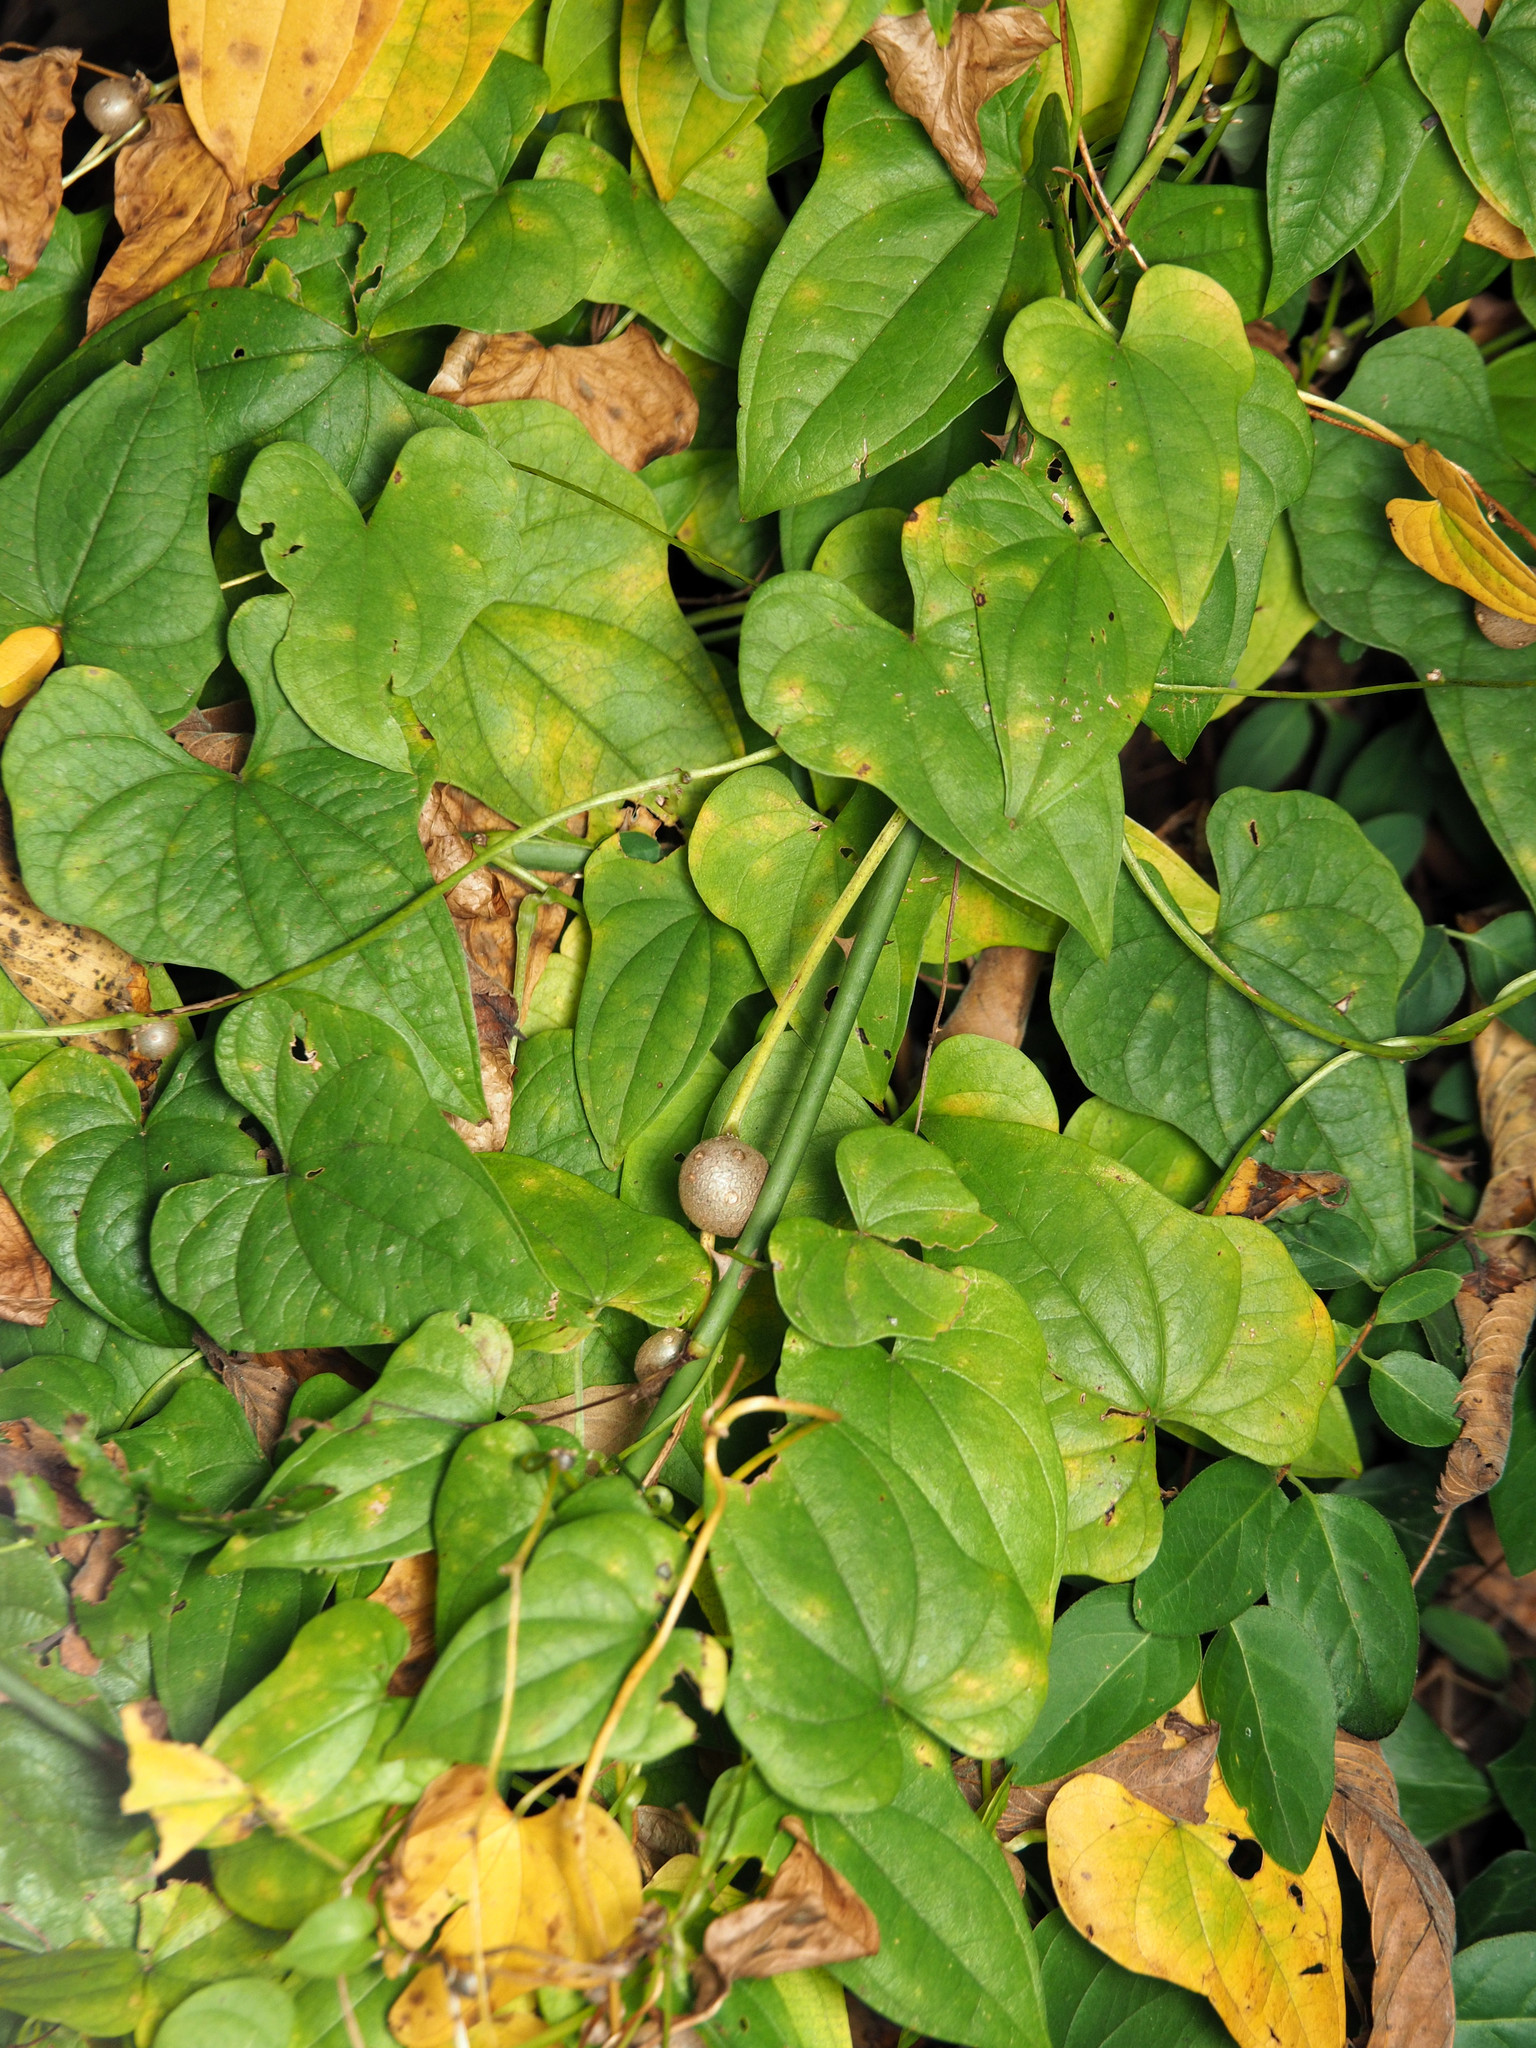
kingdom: Plantae
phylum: Tracheophyta
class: Liliopsida
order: Dioscoreales
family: Dioscoreaceae
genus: Dioscorea
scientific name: Dioscorea polystachya
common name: Chinese yam
